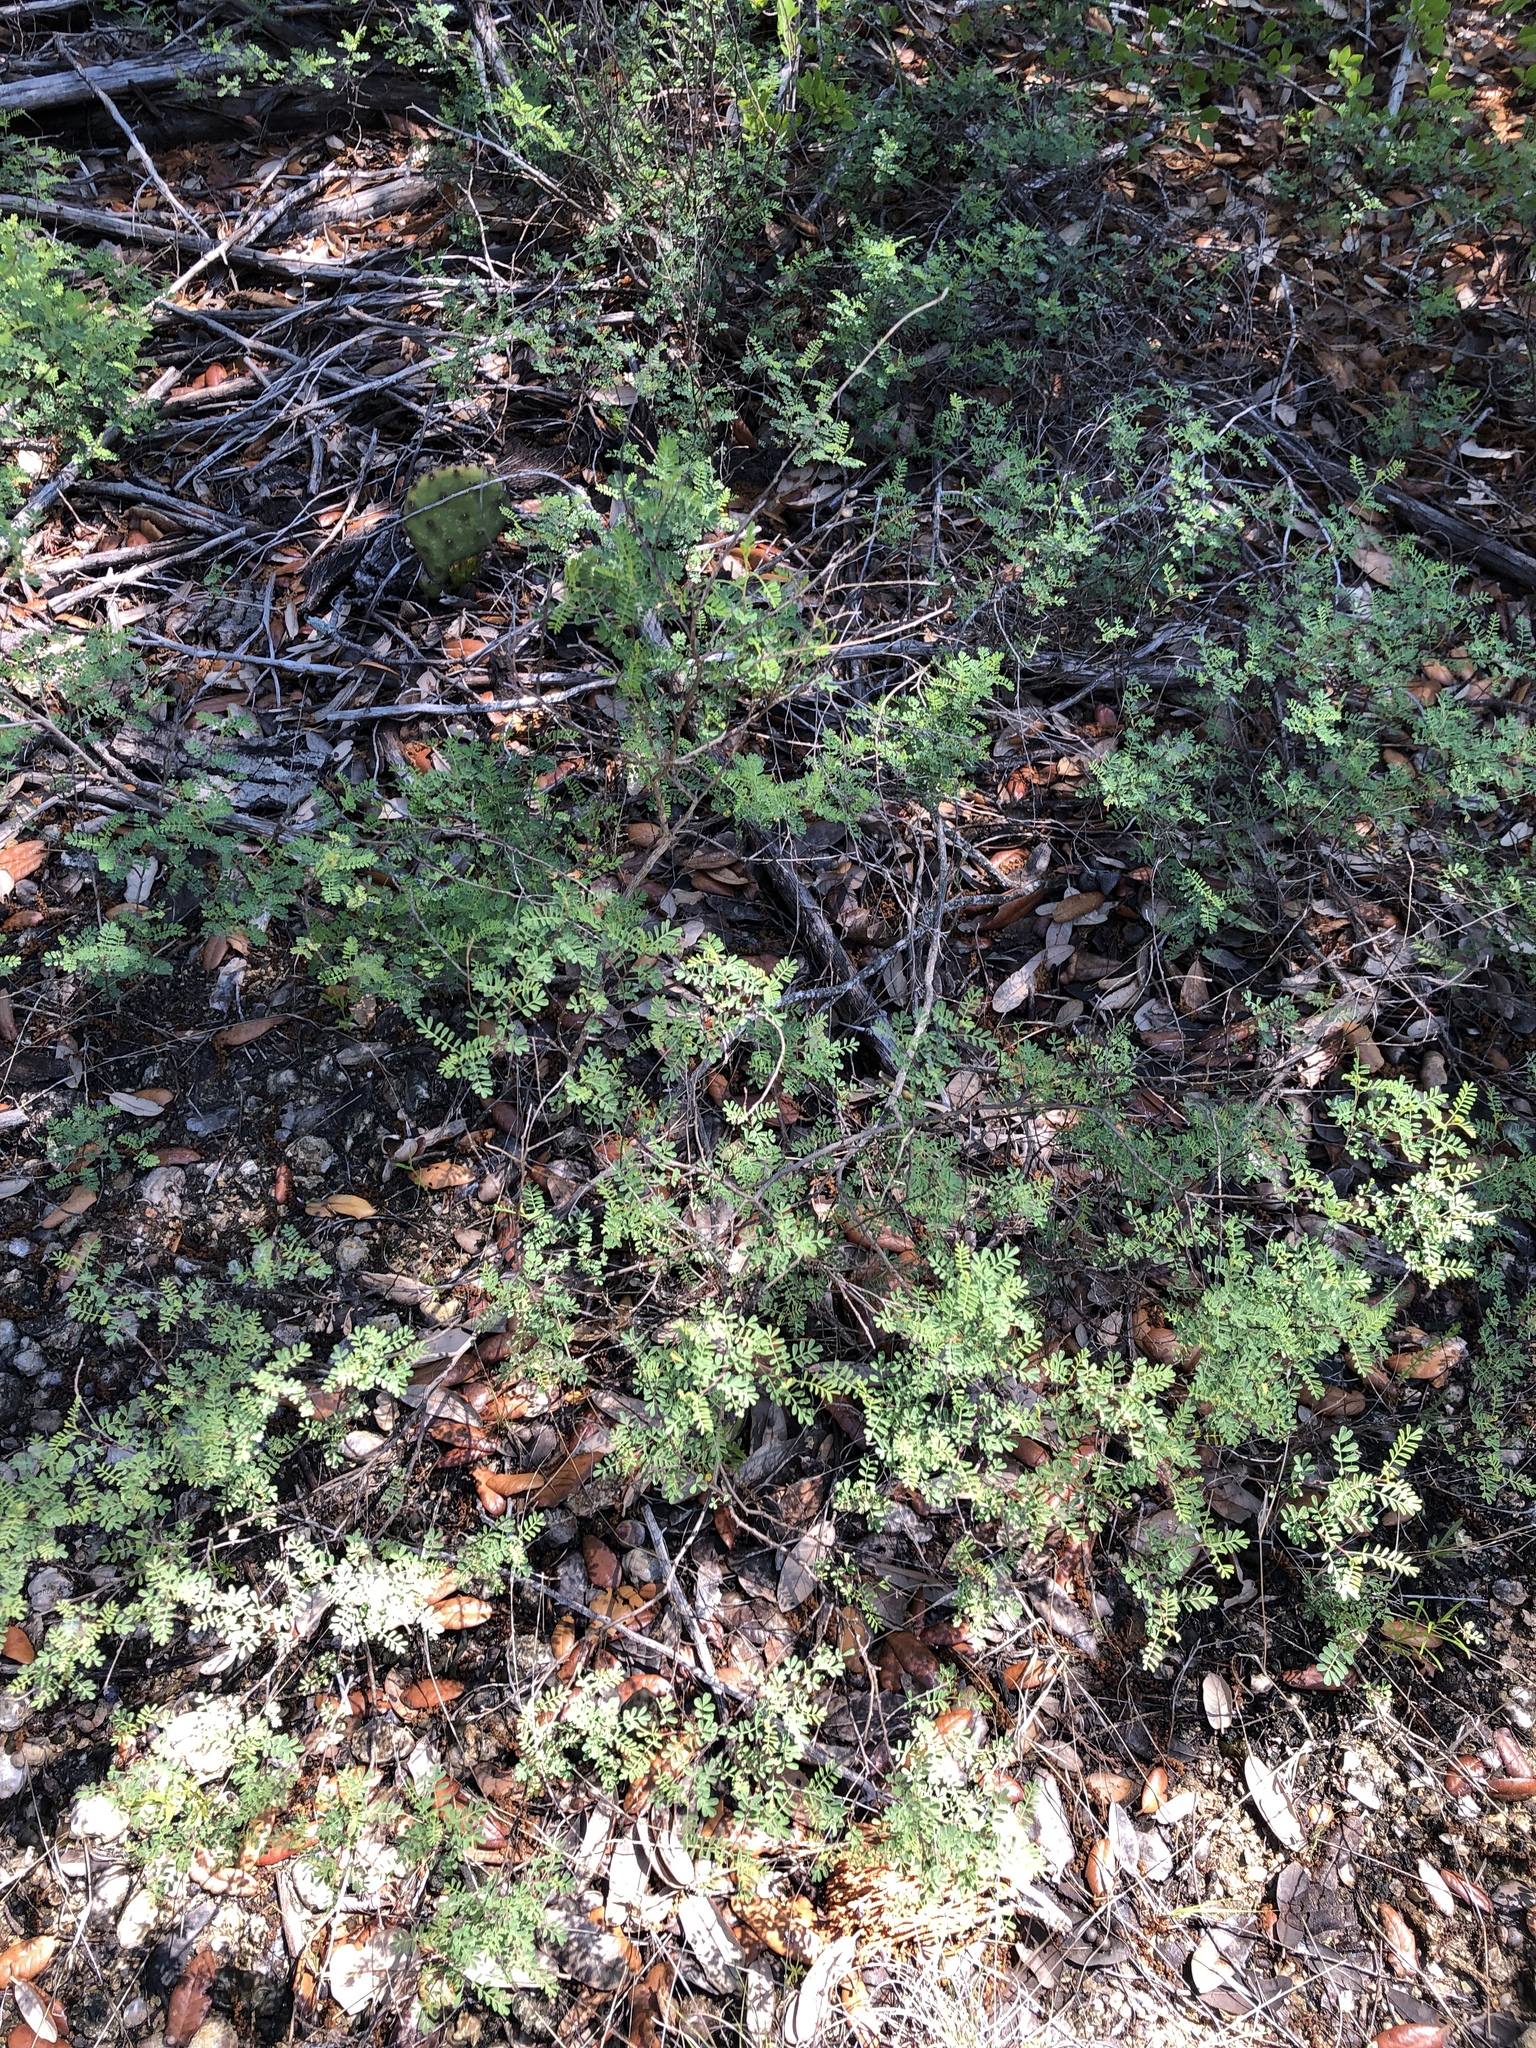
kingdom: Plantae
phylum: Tracheophyta
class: Magnoliopsida
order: Fabales
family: Fabaceae
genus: Dalea
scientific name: Dalea frutescens
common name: Black dalea
